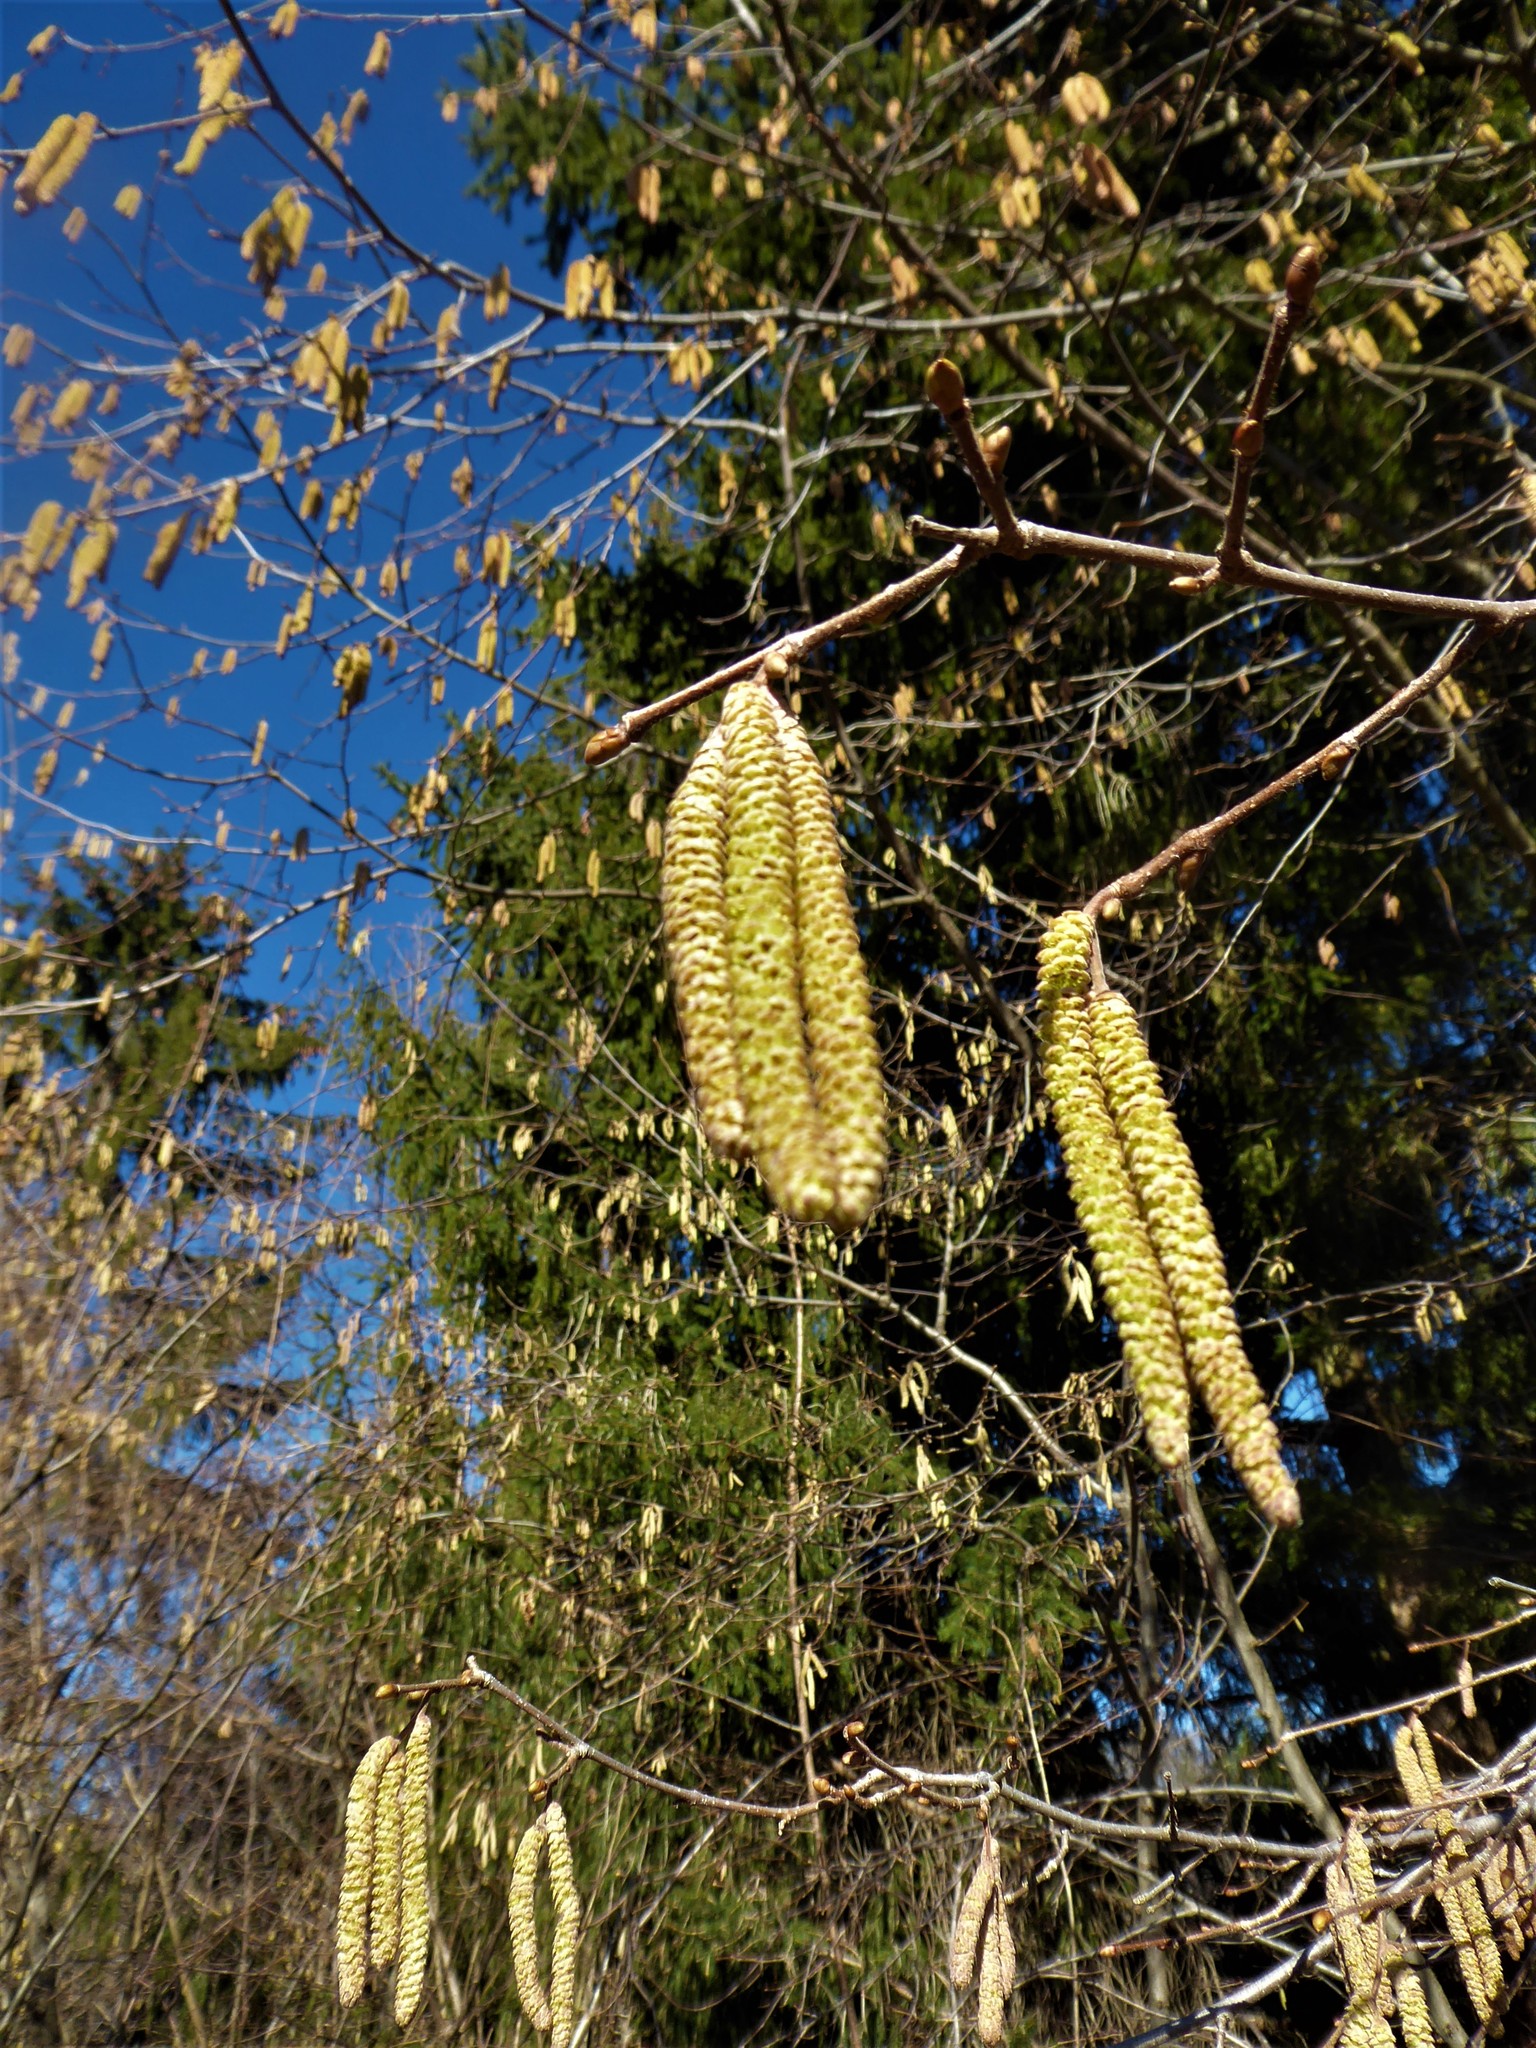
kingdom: Plantae
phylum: Tracheophyta
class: Magnoliopsida
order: Fagales
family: Betulaceae
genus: Corylus
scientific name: Corylus avellana
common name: European hazel
